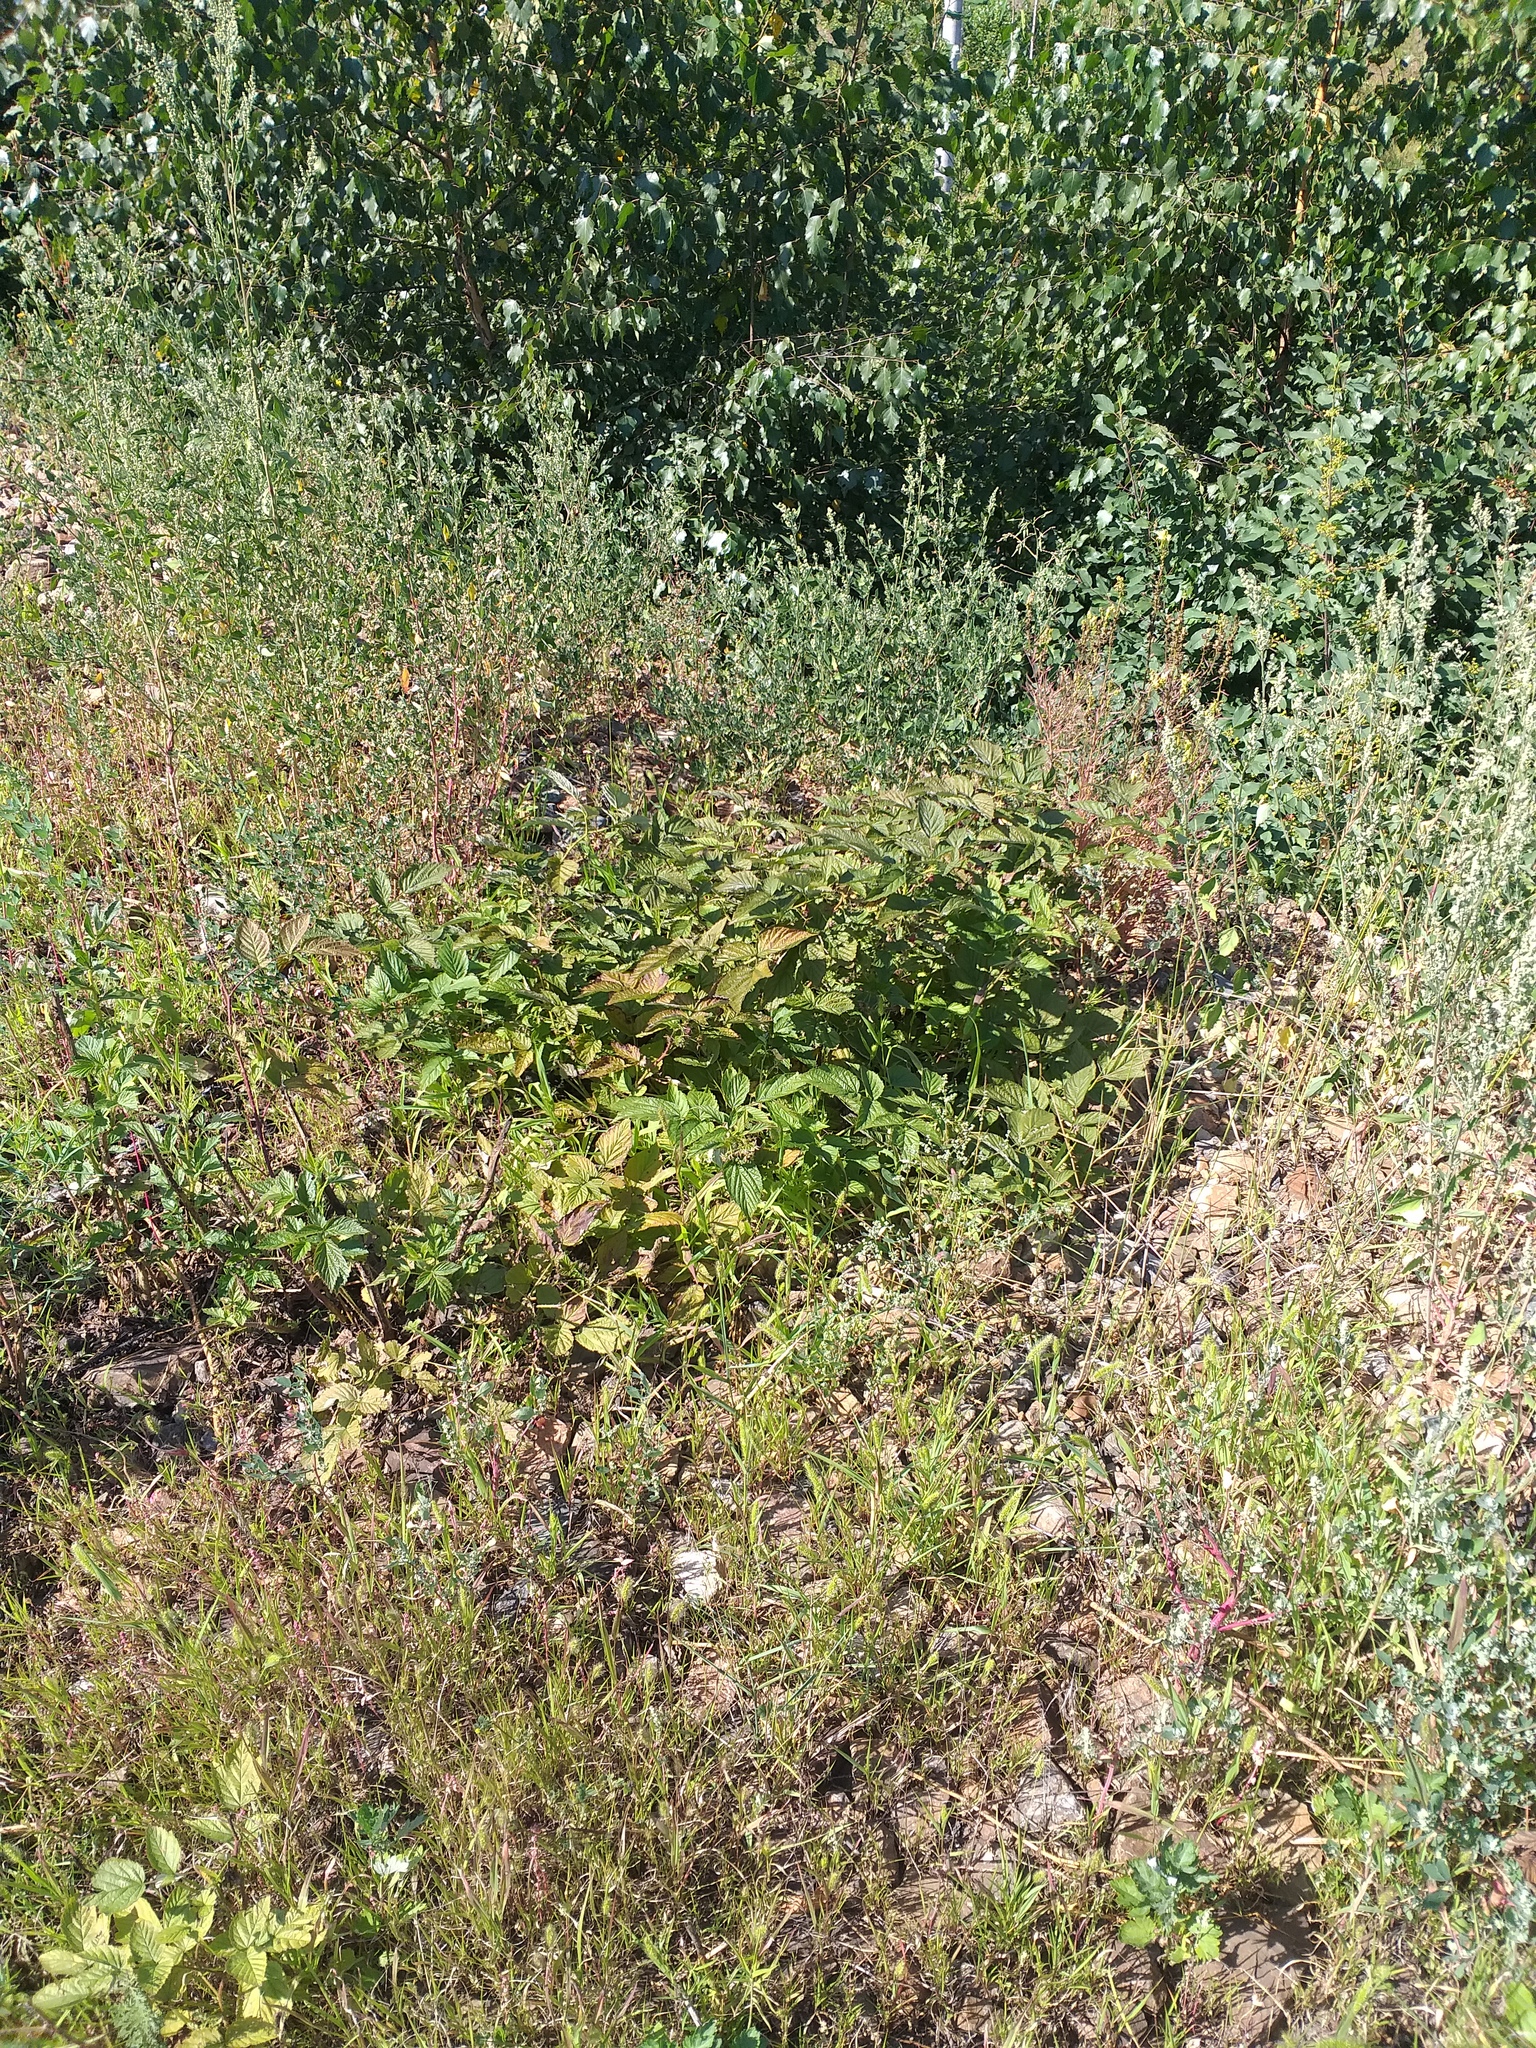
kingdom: Plantae
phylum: Tracheophyta
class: Magnoliopsida
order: Rosales
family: Rosaceae
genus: Rubus
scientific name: Rubus idaeus
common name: Raspberry
